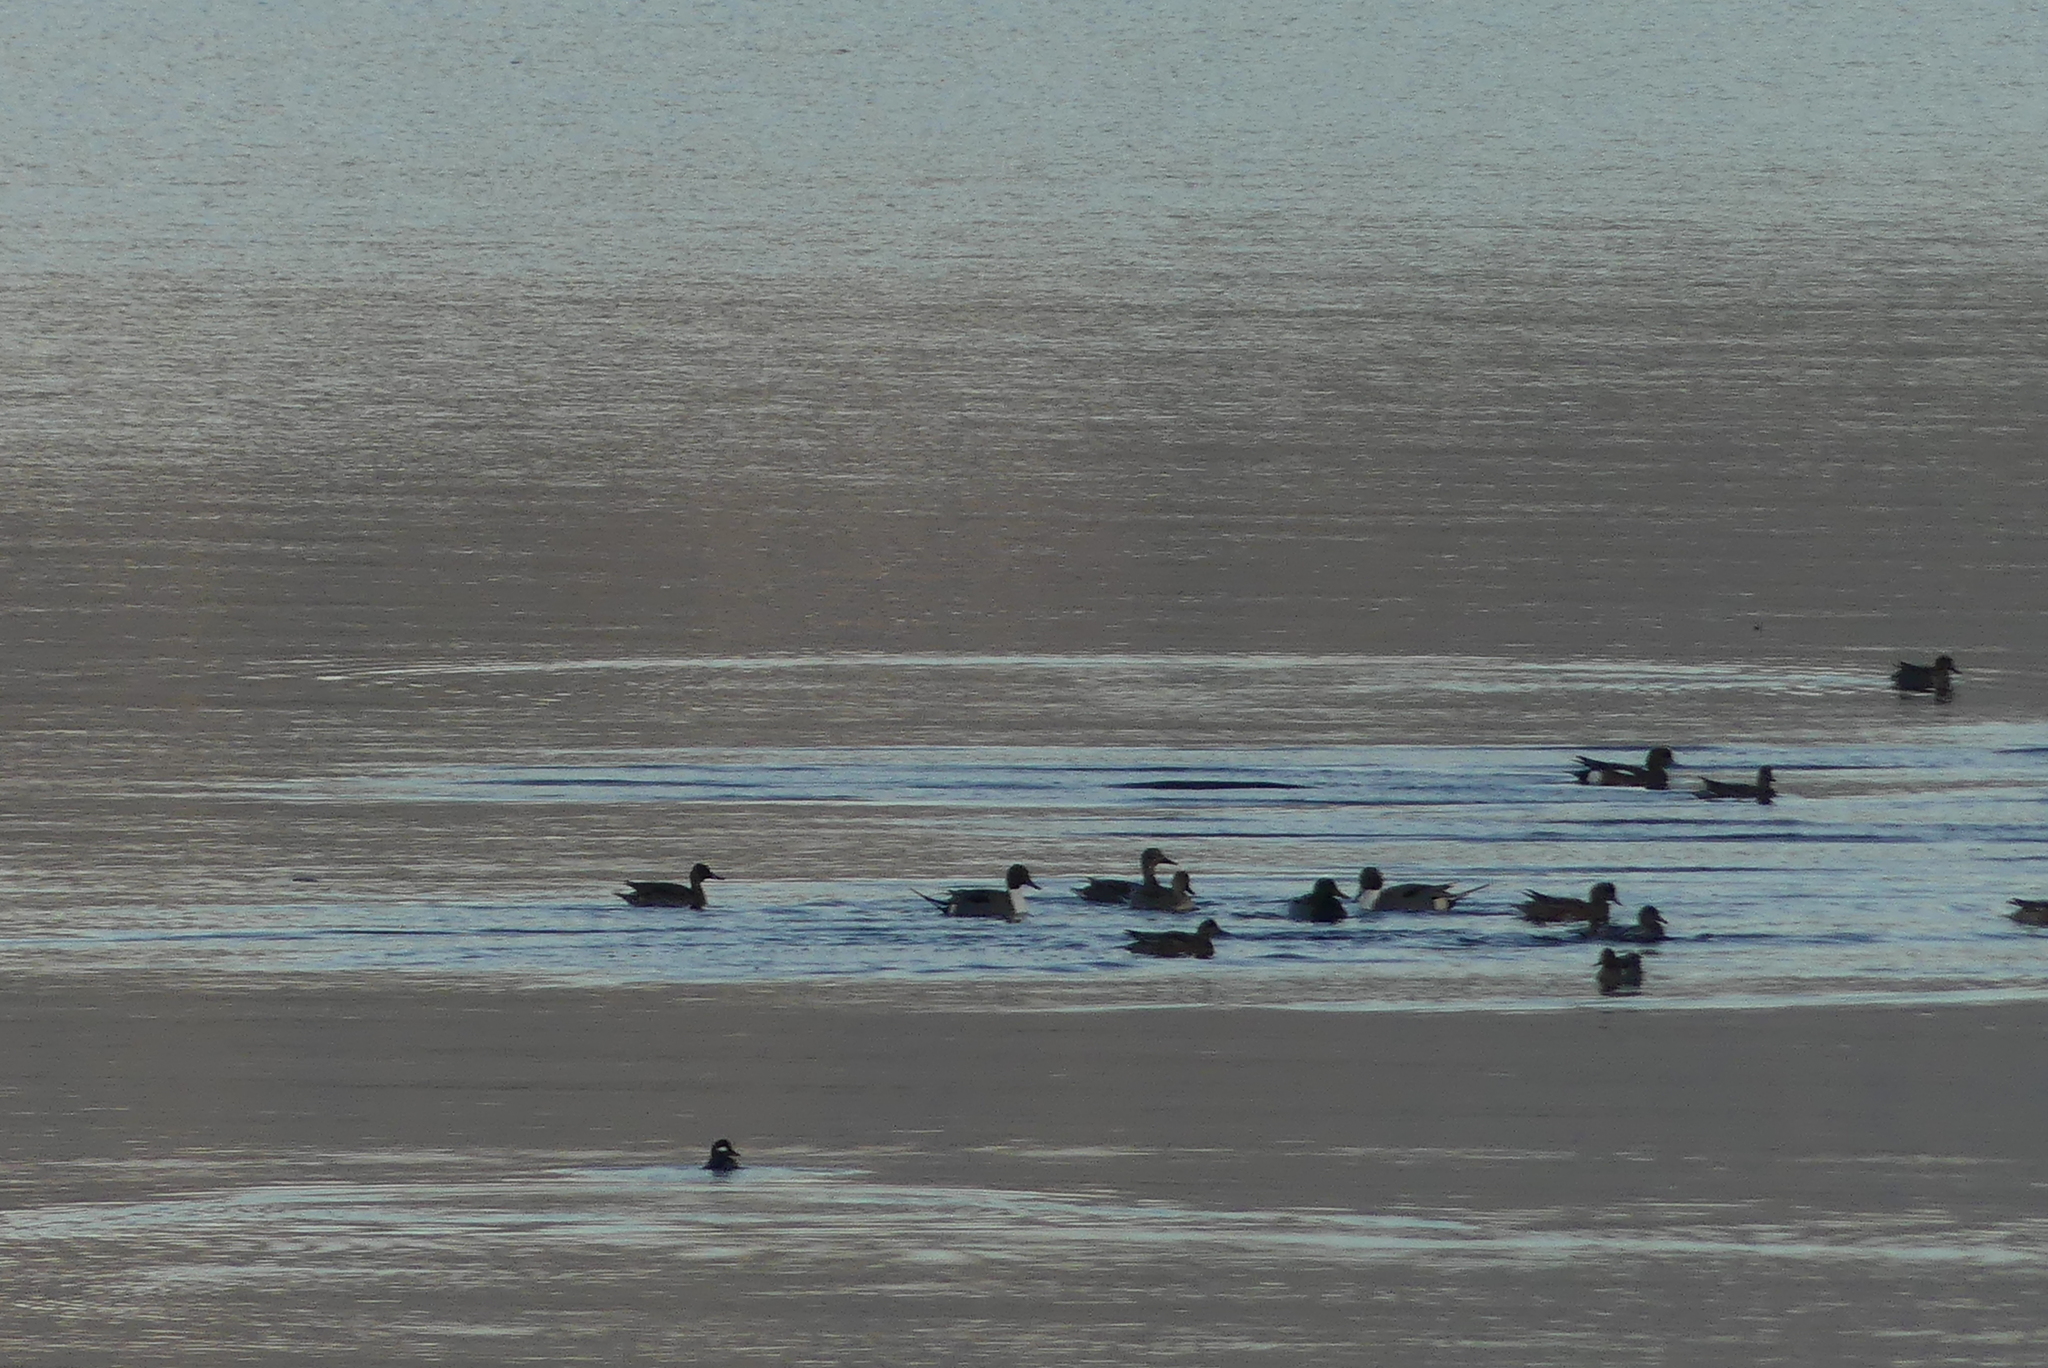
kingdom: Animalia
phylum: Chordata
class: Aves
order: Anseriformes
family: Anatidae
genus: Anas
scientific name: Anas acuta
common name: Northern pintail
